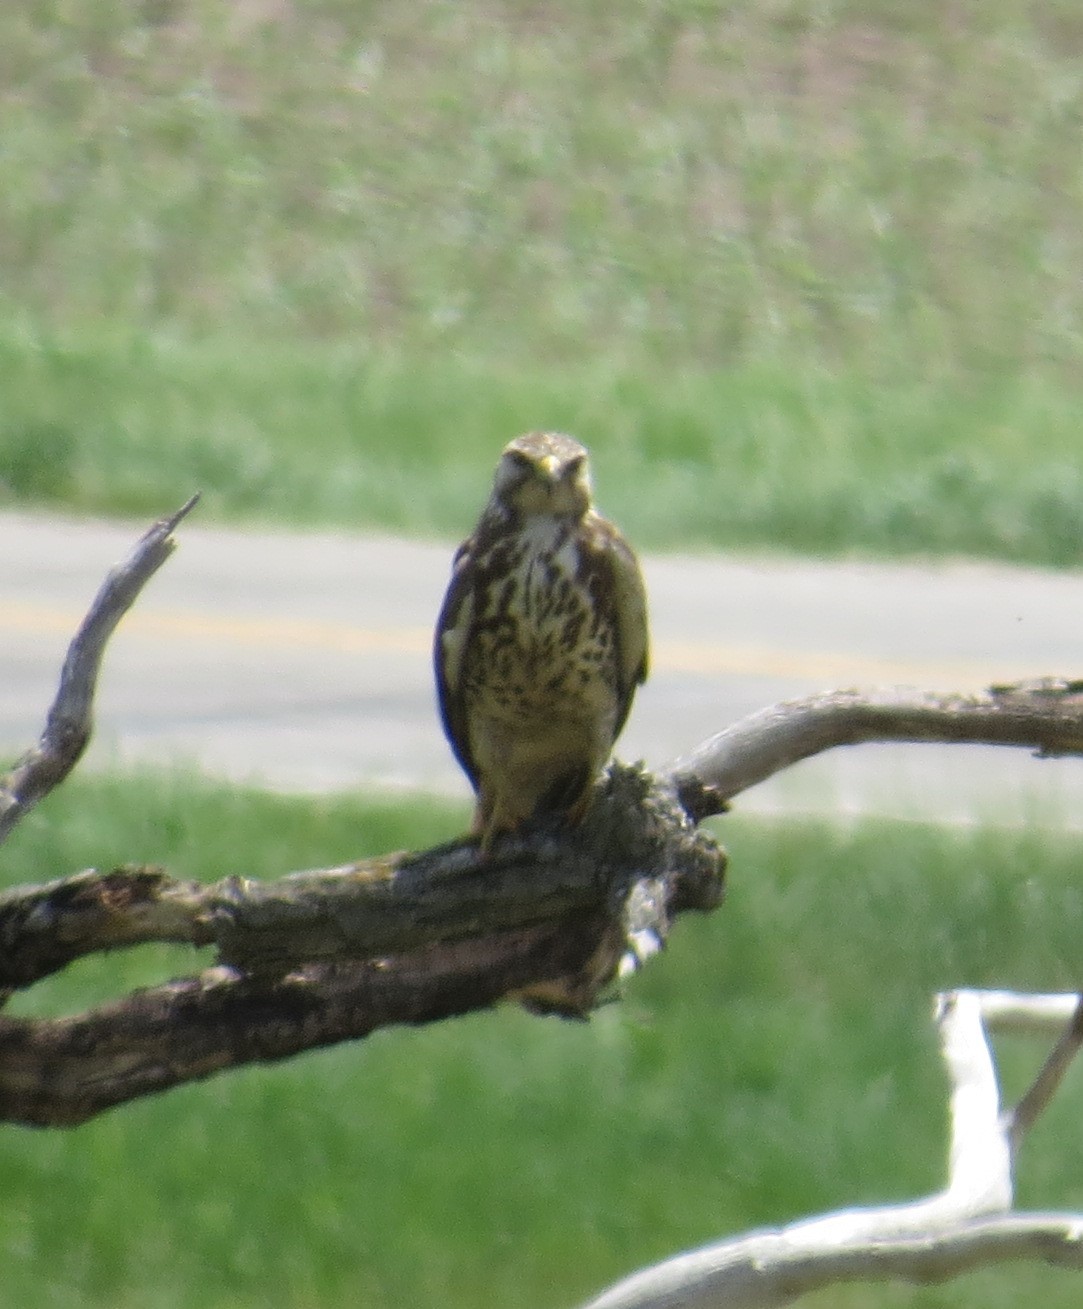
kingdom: Animalia
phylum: Chordata
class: Aves
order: Accipitriformes
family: Accipitridae
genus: Buteo
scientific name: Buteo swainsoni
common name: Swainson's hawk
